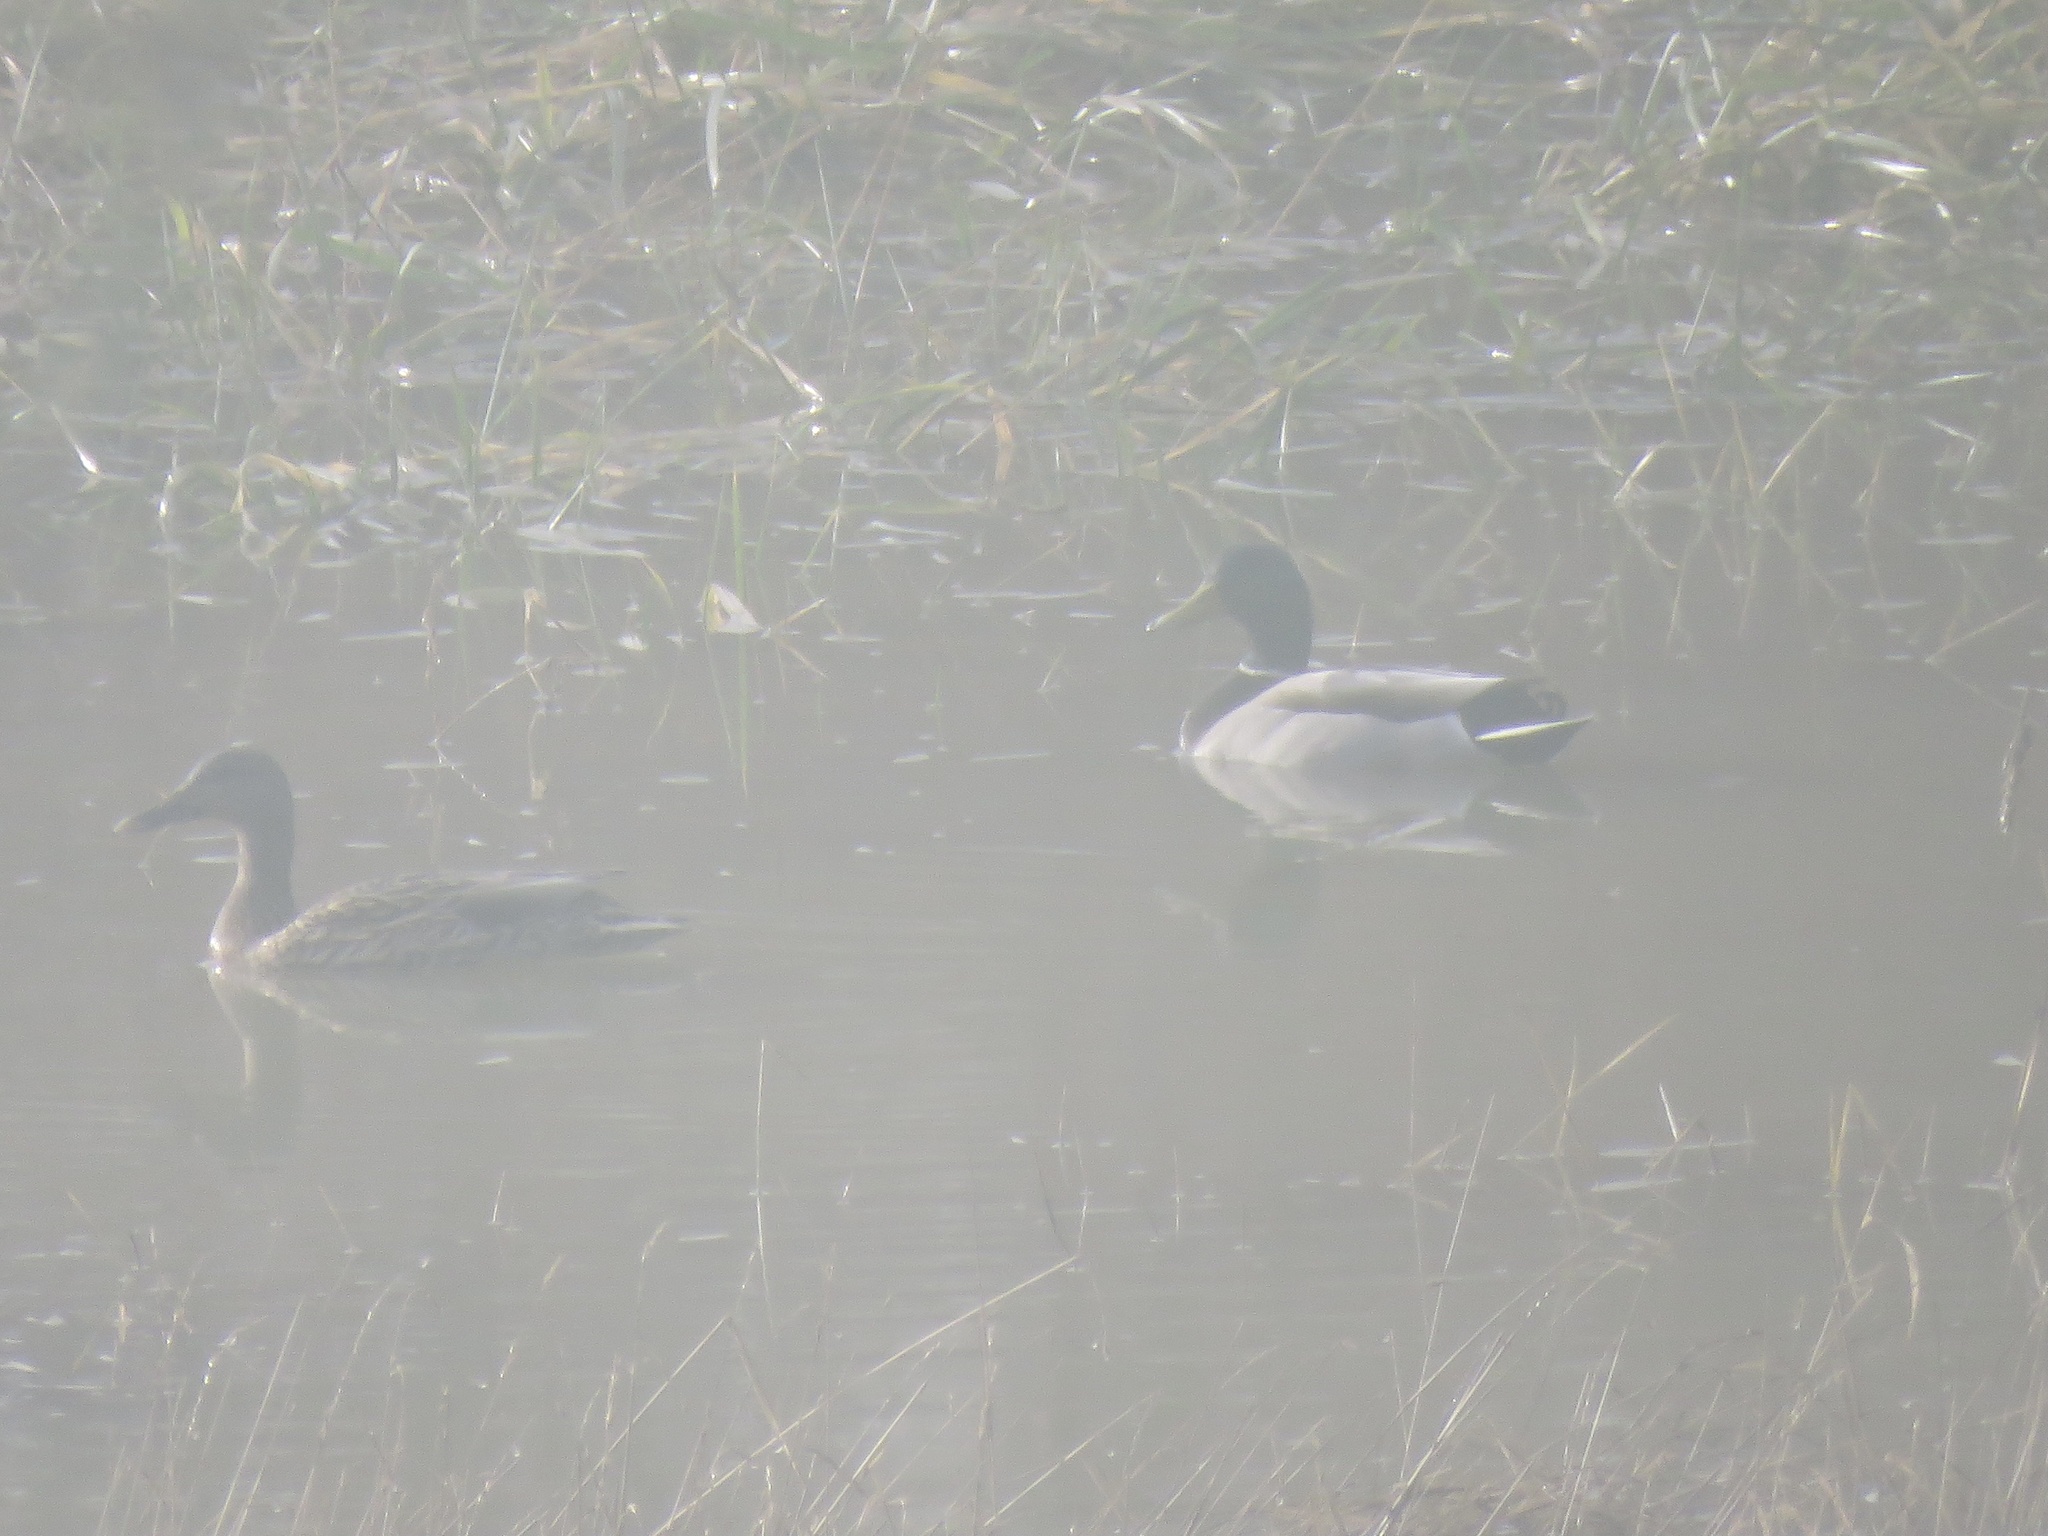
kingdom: Animalia
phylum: Chordata
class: Aves
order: Anseriformes
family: Anatidae
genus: Anas
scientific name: Anas platyrhynchos
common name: Mallard
